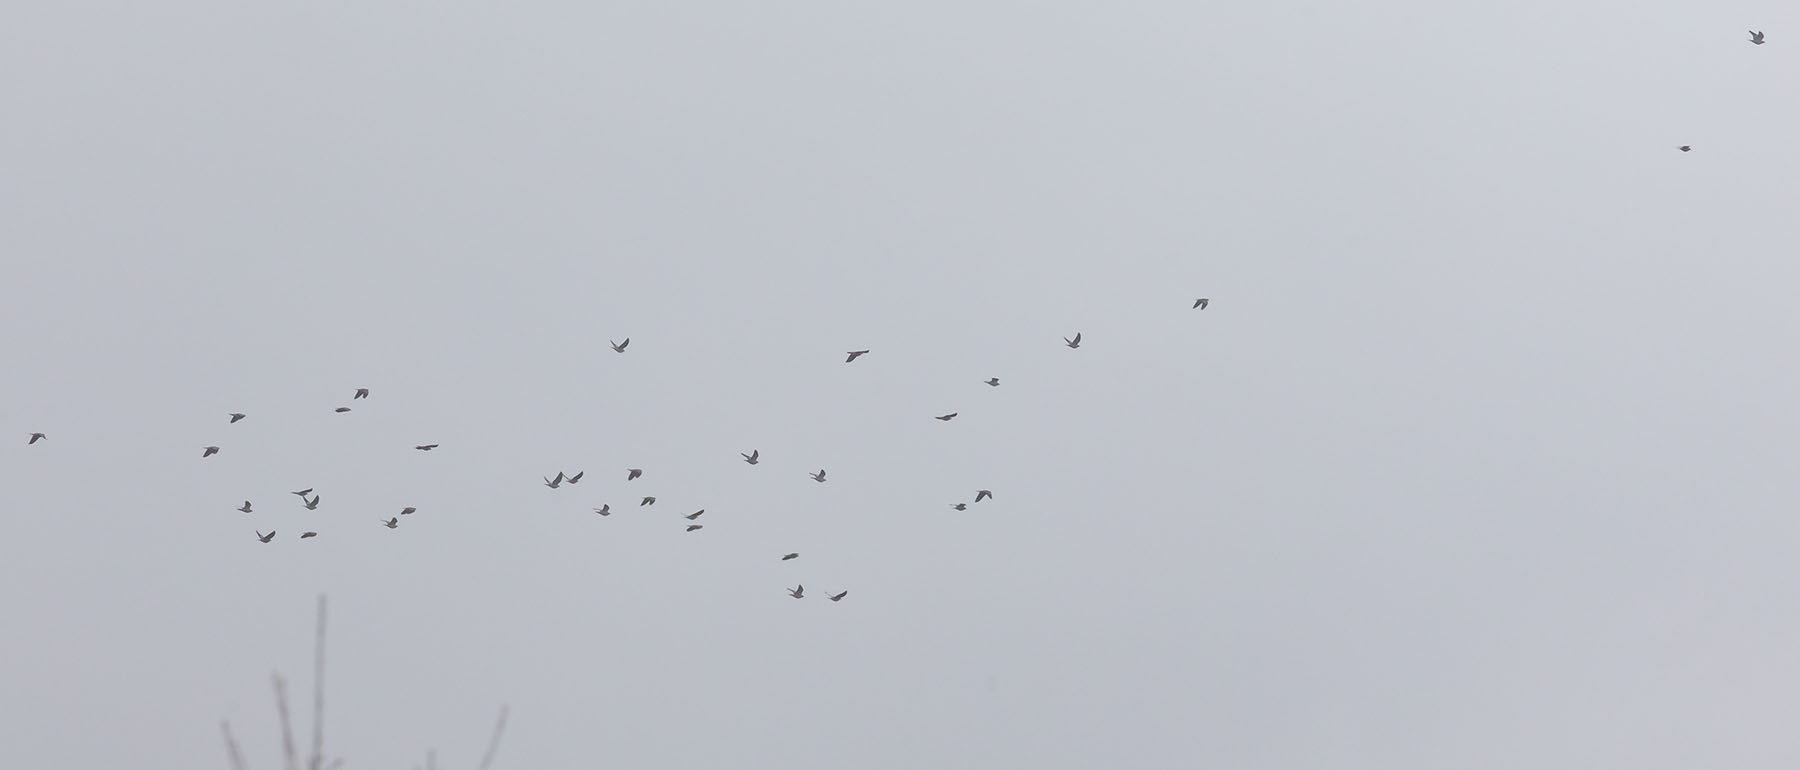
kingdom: Animalia
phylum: Chordata
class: Aves
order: Columbiformes
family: Columbidae
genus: Patagioenas
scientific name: Patagioenas fasciata
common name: Band-tailed pigeon
